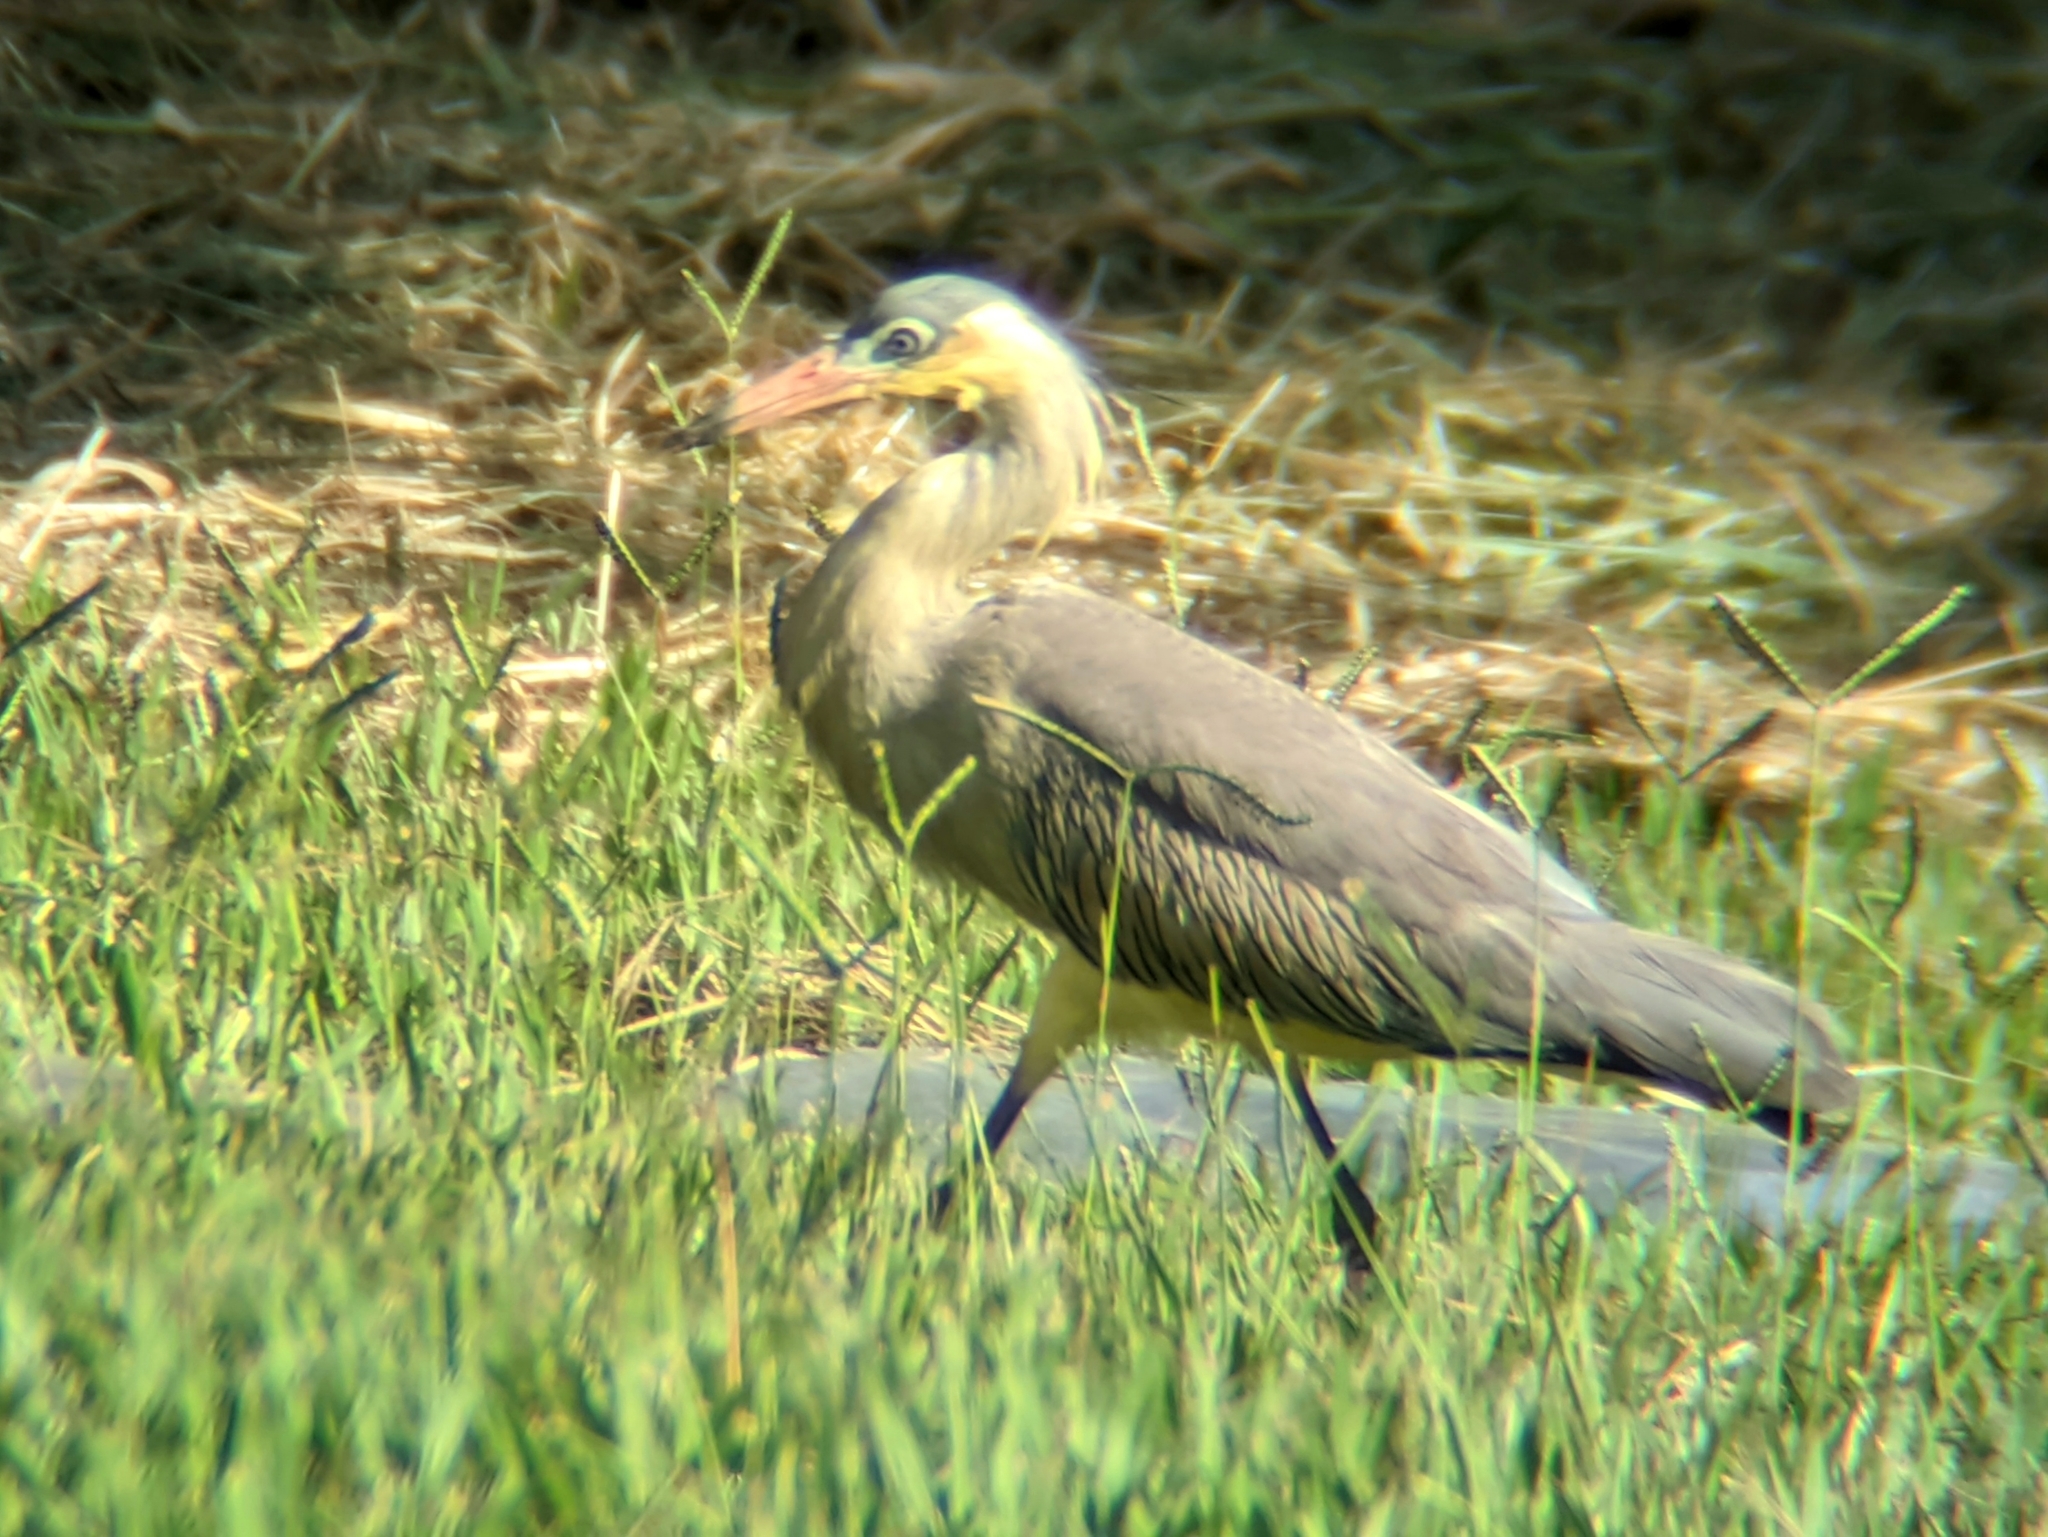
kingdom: Animalia
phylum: Chordata
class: Aves
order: Pelecaniformes
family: Ardeidae
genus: Syrigma
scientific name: Syrigma sibilatrix
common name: Whistling heron
